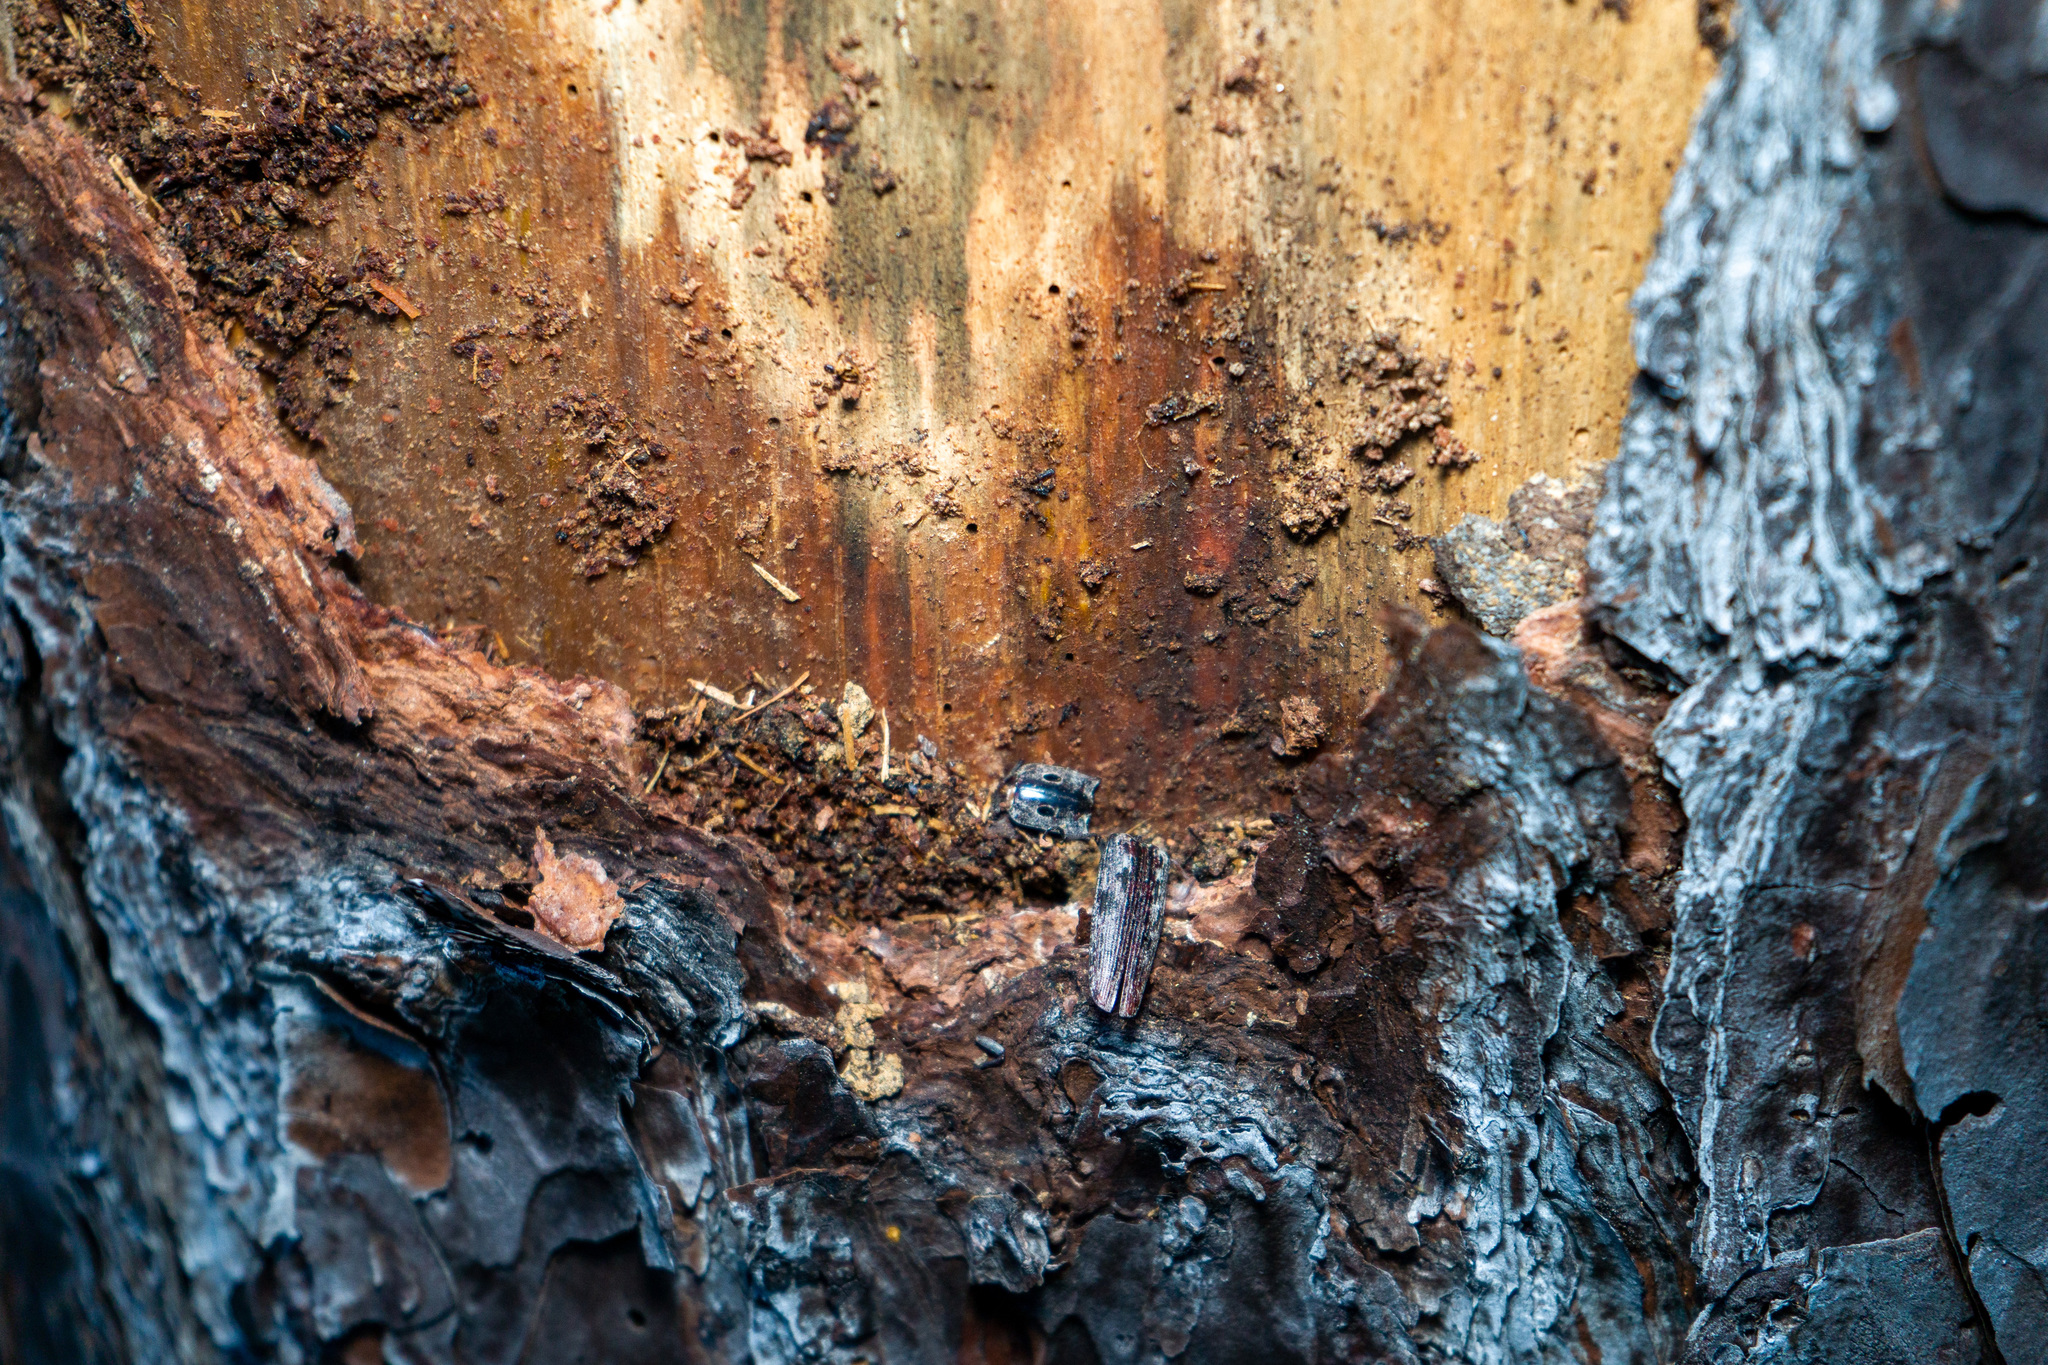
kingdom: Animalia
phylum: Arthropoda
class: Insecta
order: Coleoptera
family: Elateridae
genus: Alaus
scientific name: Alaus myops
